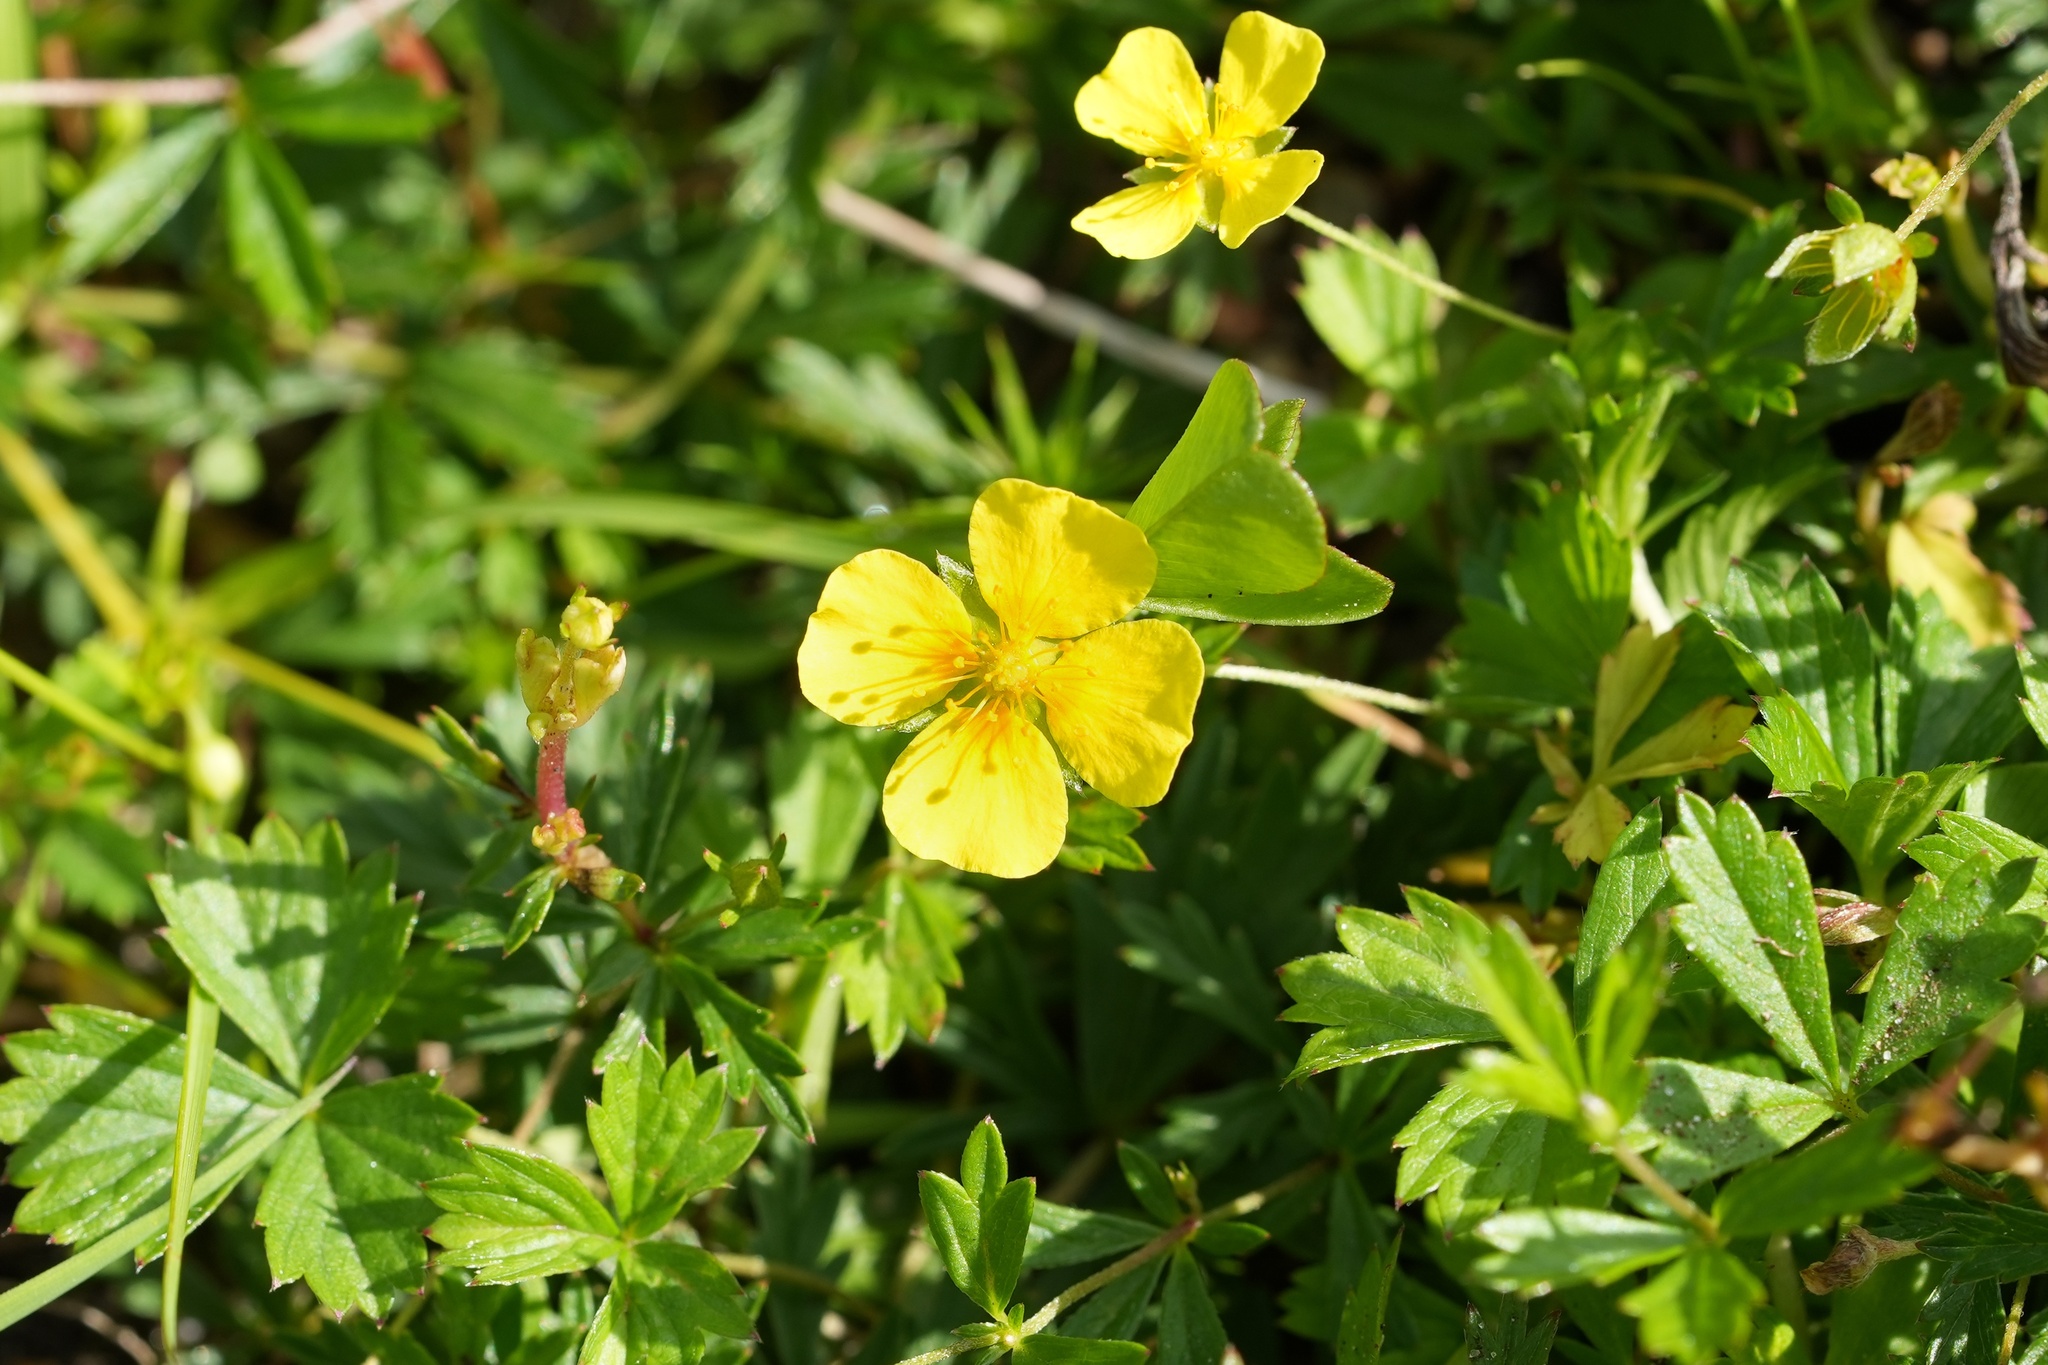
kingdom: Plantae
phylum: Tracheophyta
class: Magnoliopsida
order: Rosales
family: Rosaceae
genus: Potentilla
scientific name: Potentilla erecta
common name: Tormentil
